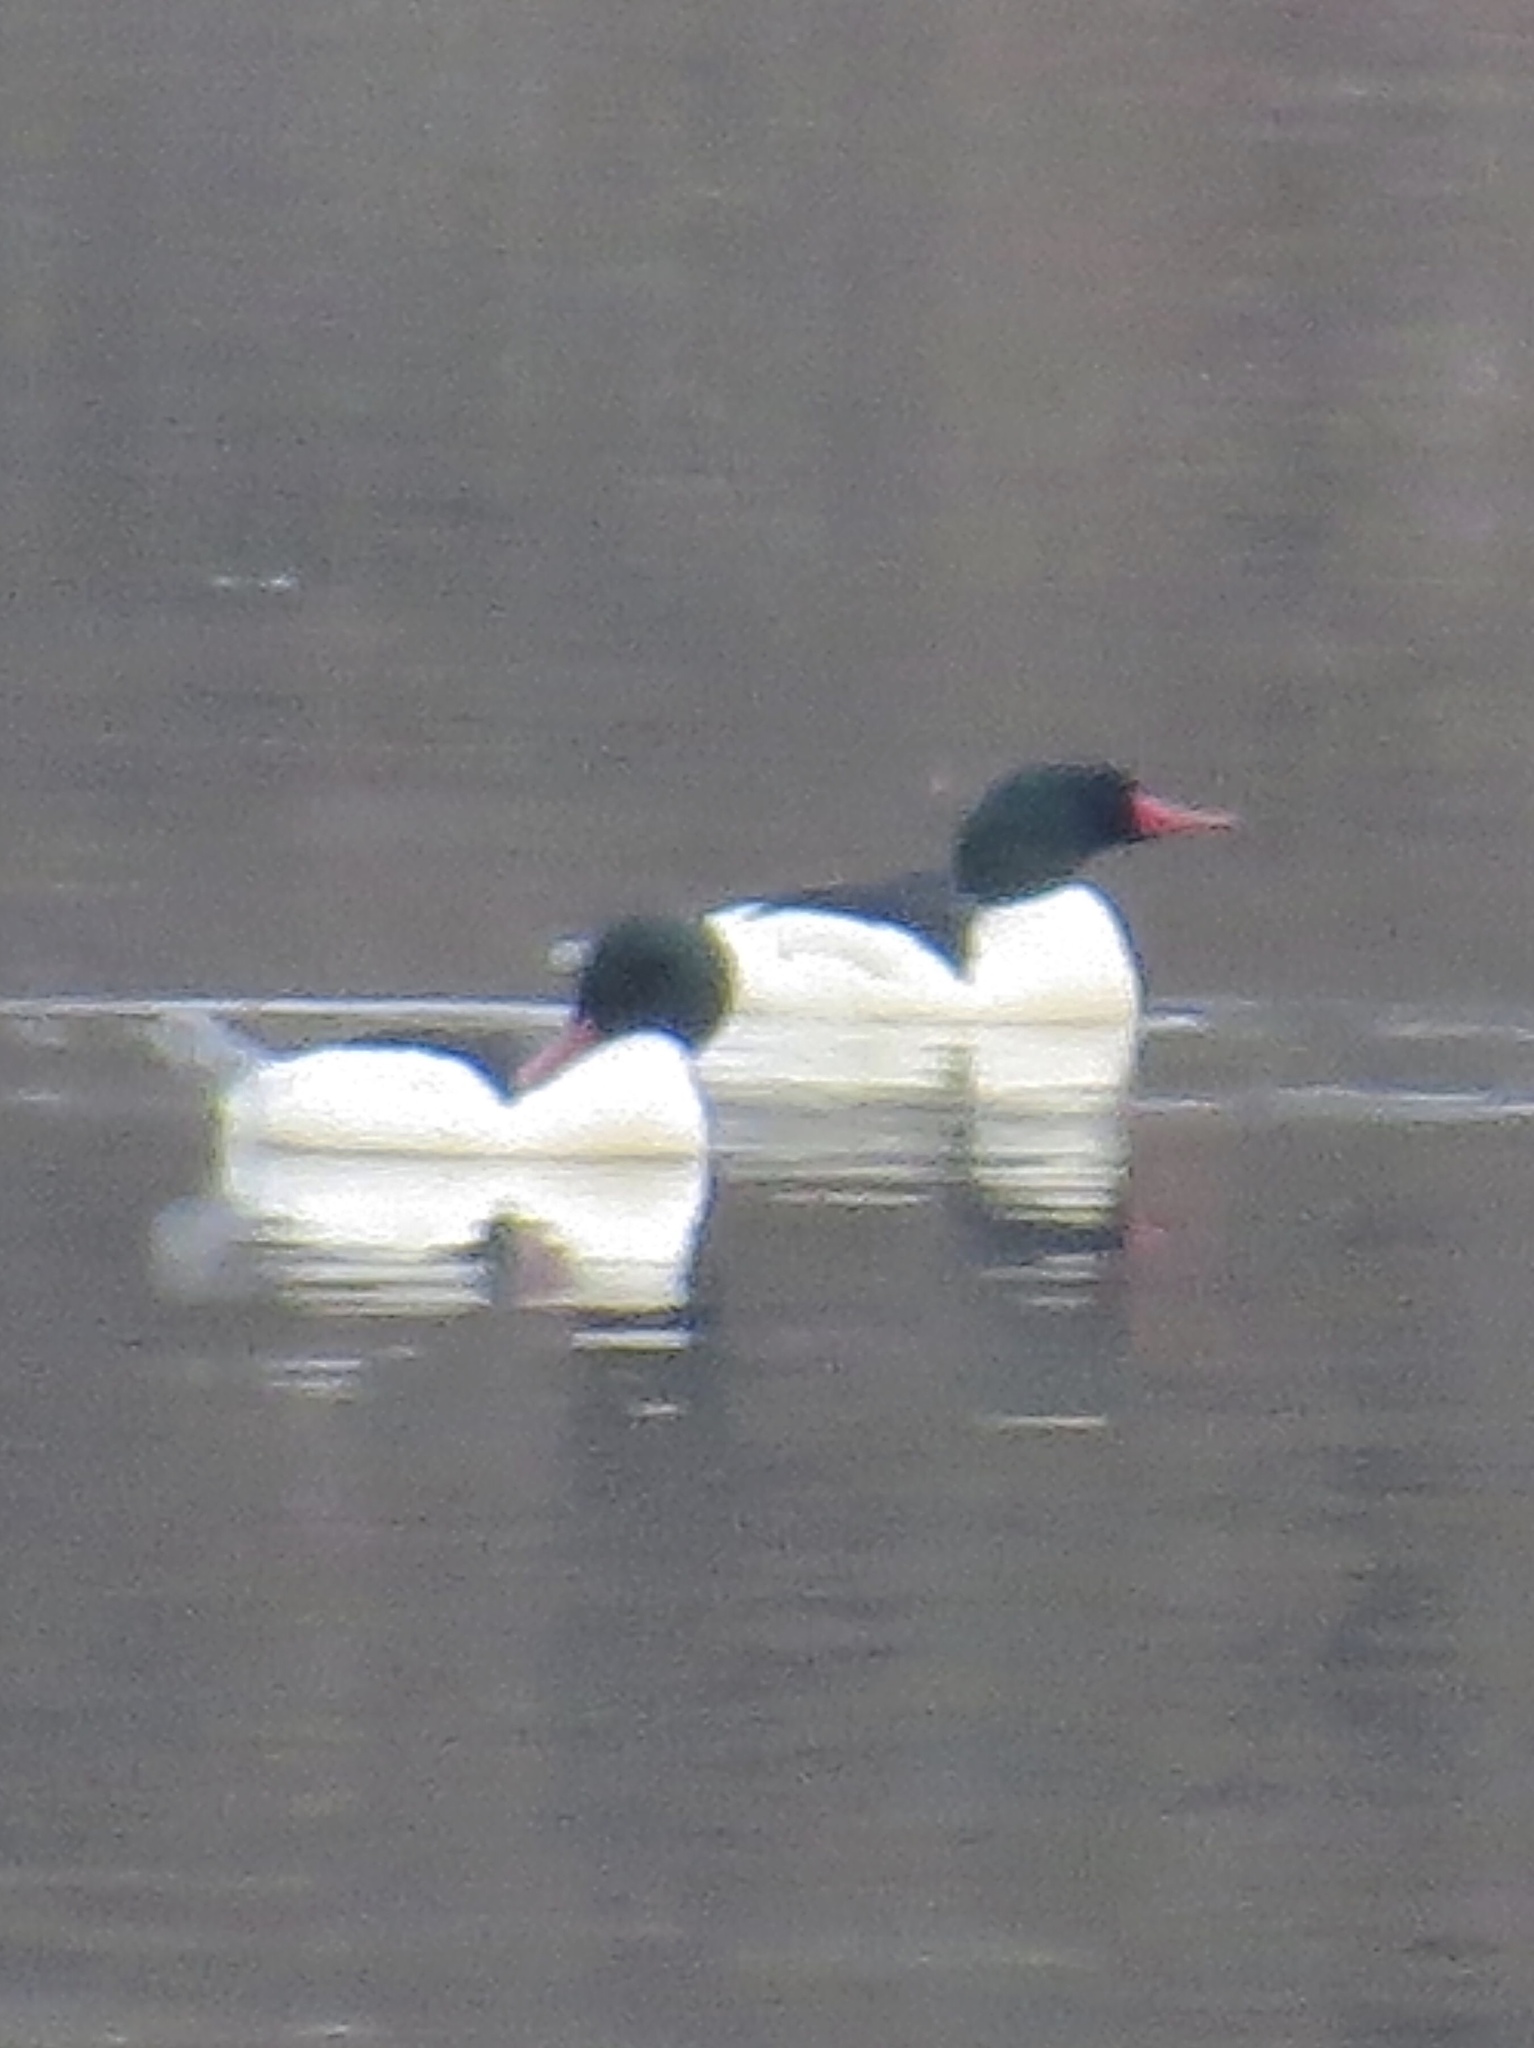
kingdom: Animalia
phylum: Chordata
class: Aves
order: Anseriformes
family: Anatidae
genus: Mergus
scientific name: Mergus merganser
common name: Common merganser
